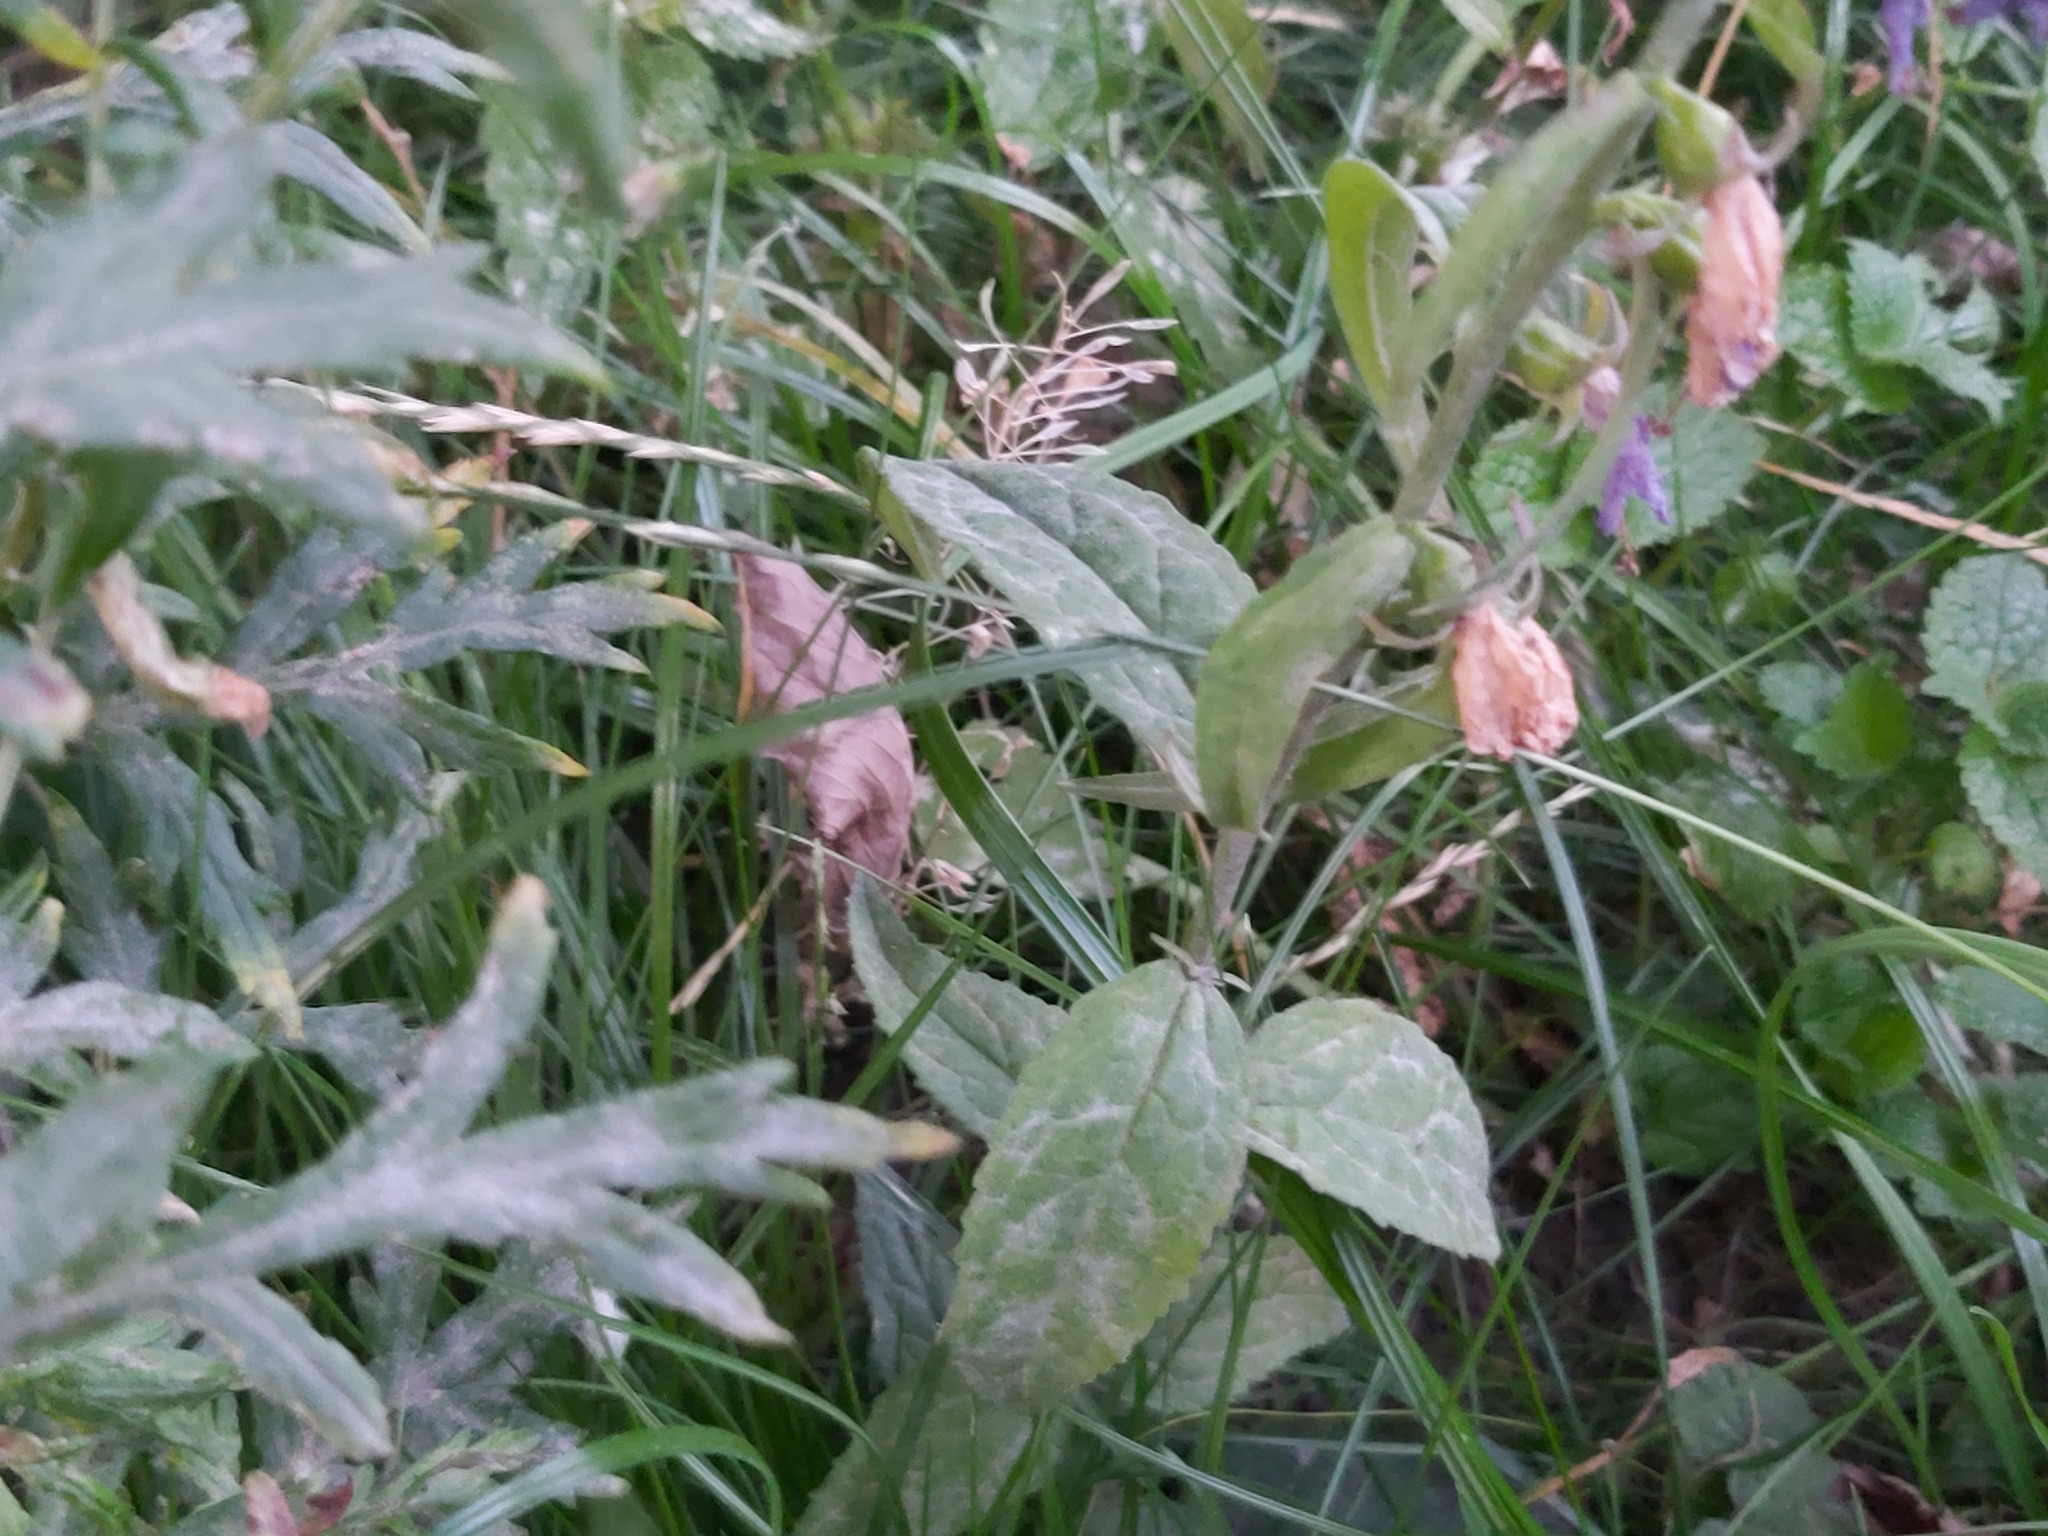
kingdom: Plantae
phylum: Tracheophyta
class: Magnoliopsida
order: Asterales
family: Campanulaceae
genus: Campanula
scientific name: Campanula rapunculoides
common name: Creeping bellflower
